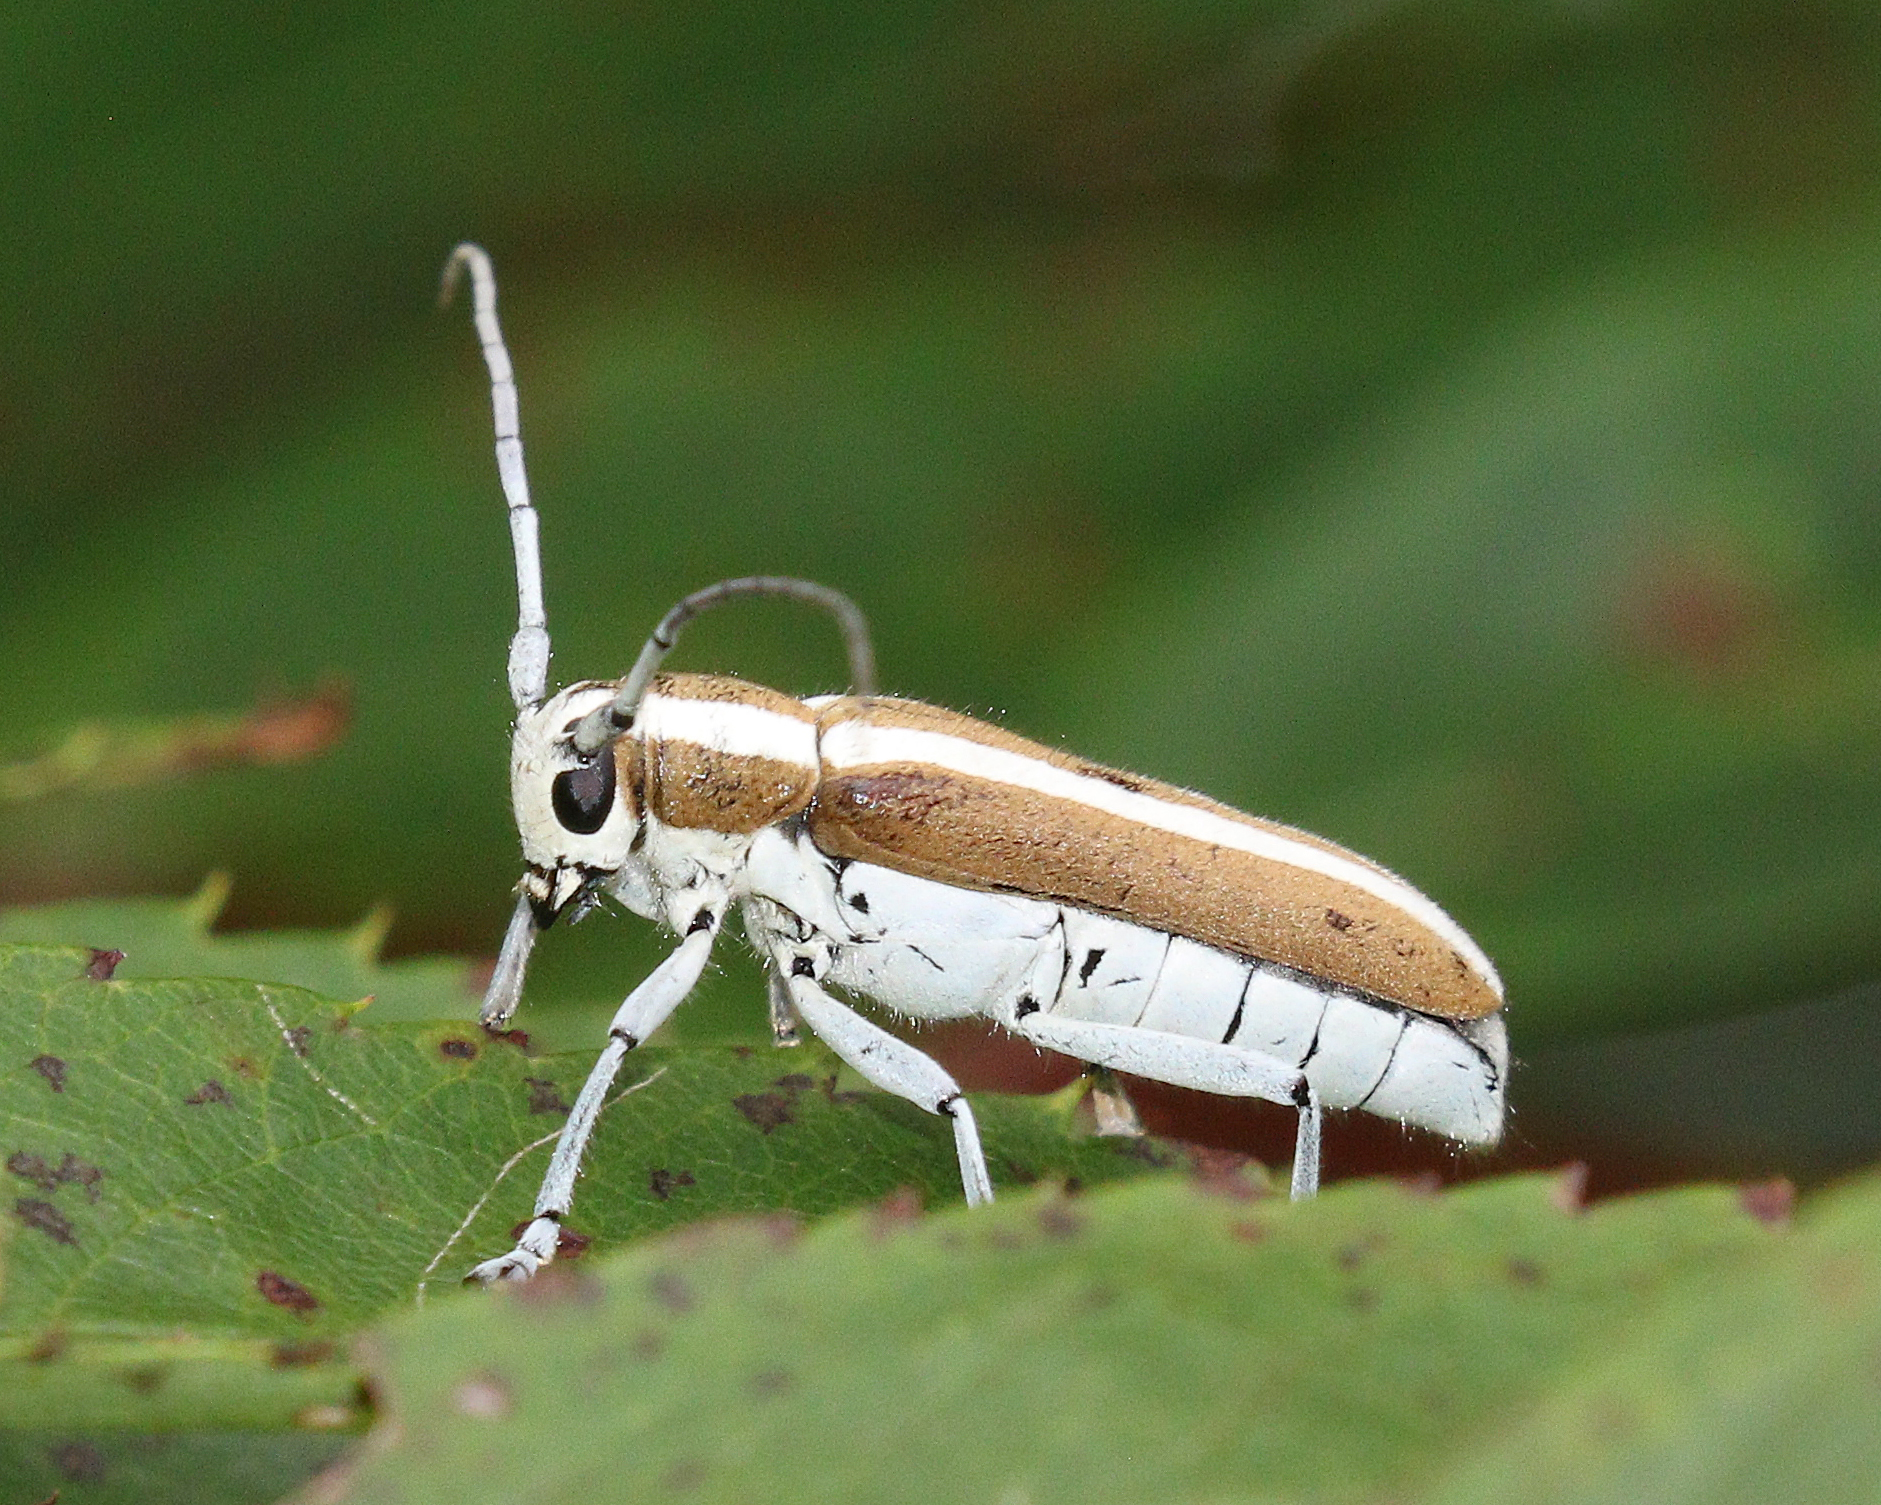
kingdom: Animalia
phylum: Arthropoda
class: Insecta
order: Coleoptera
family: Cerambycidae
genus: Saperda
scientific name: Saperda candida
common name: Round-headed borer
